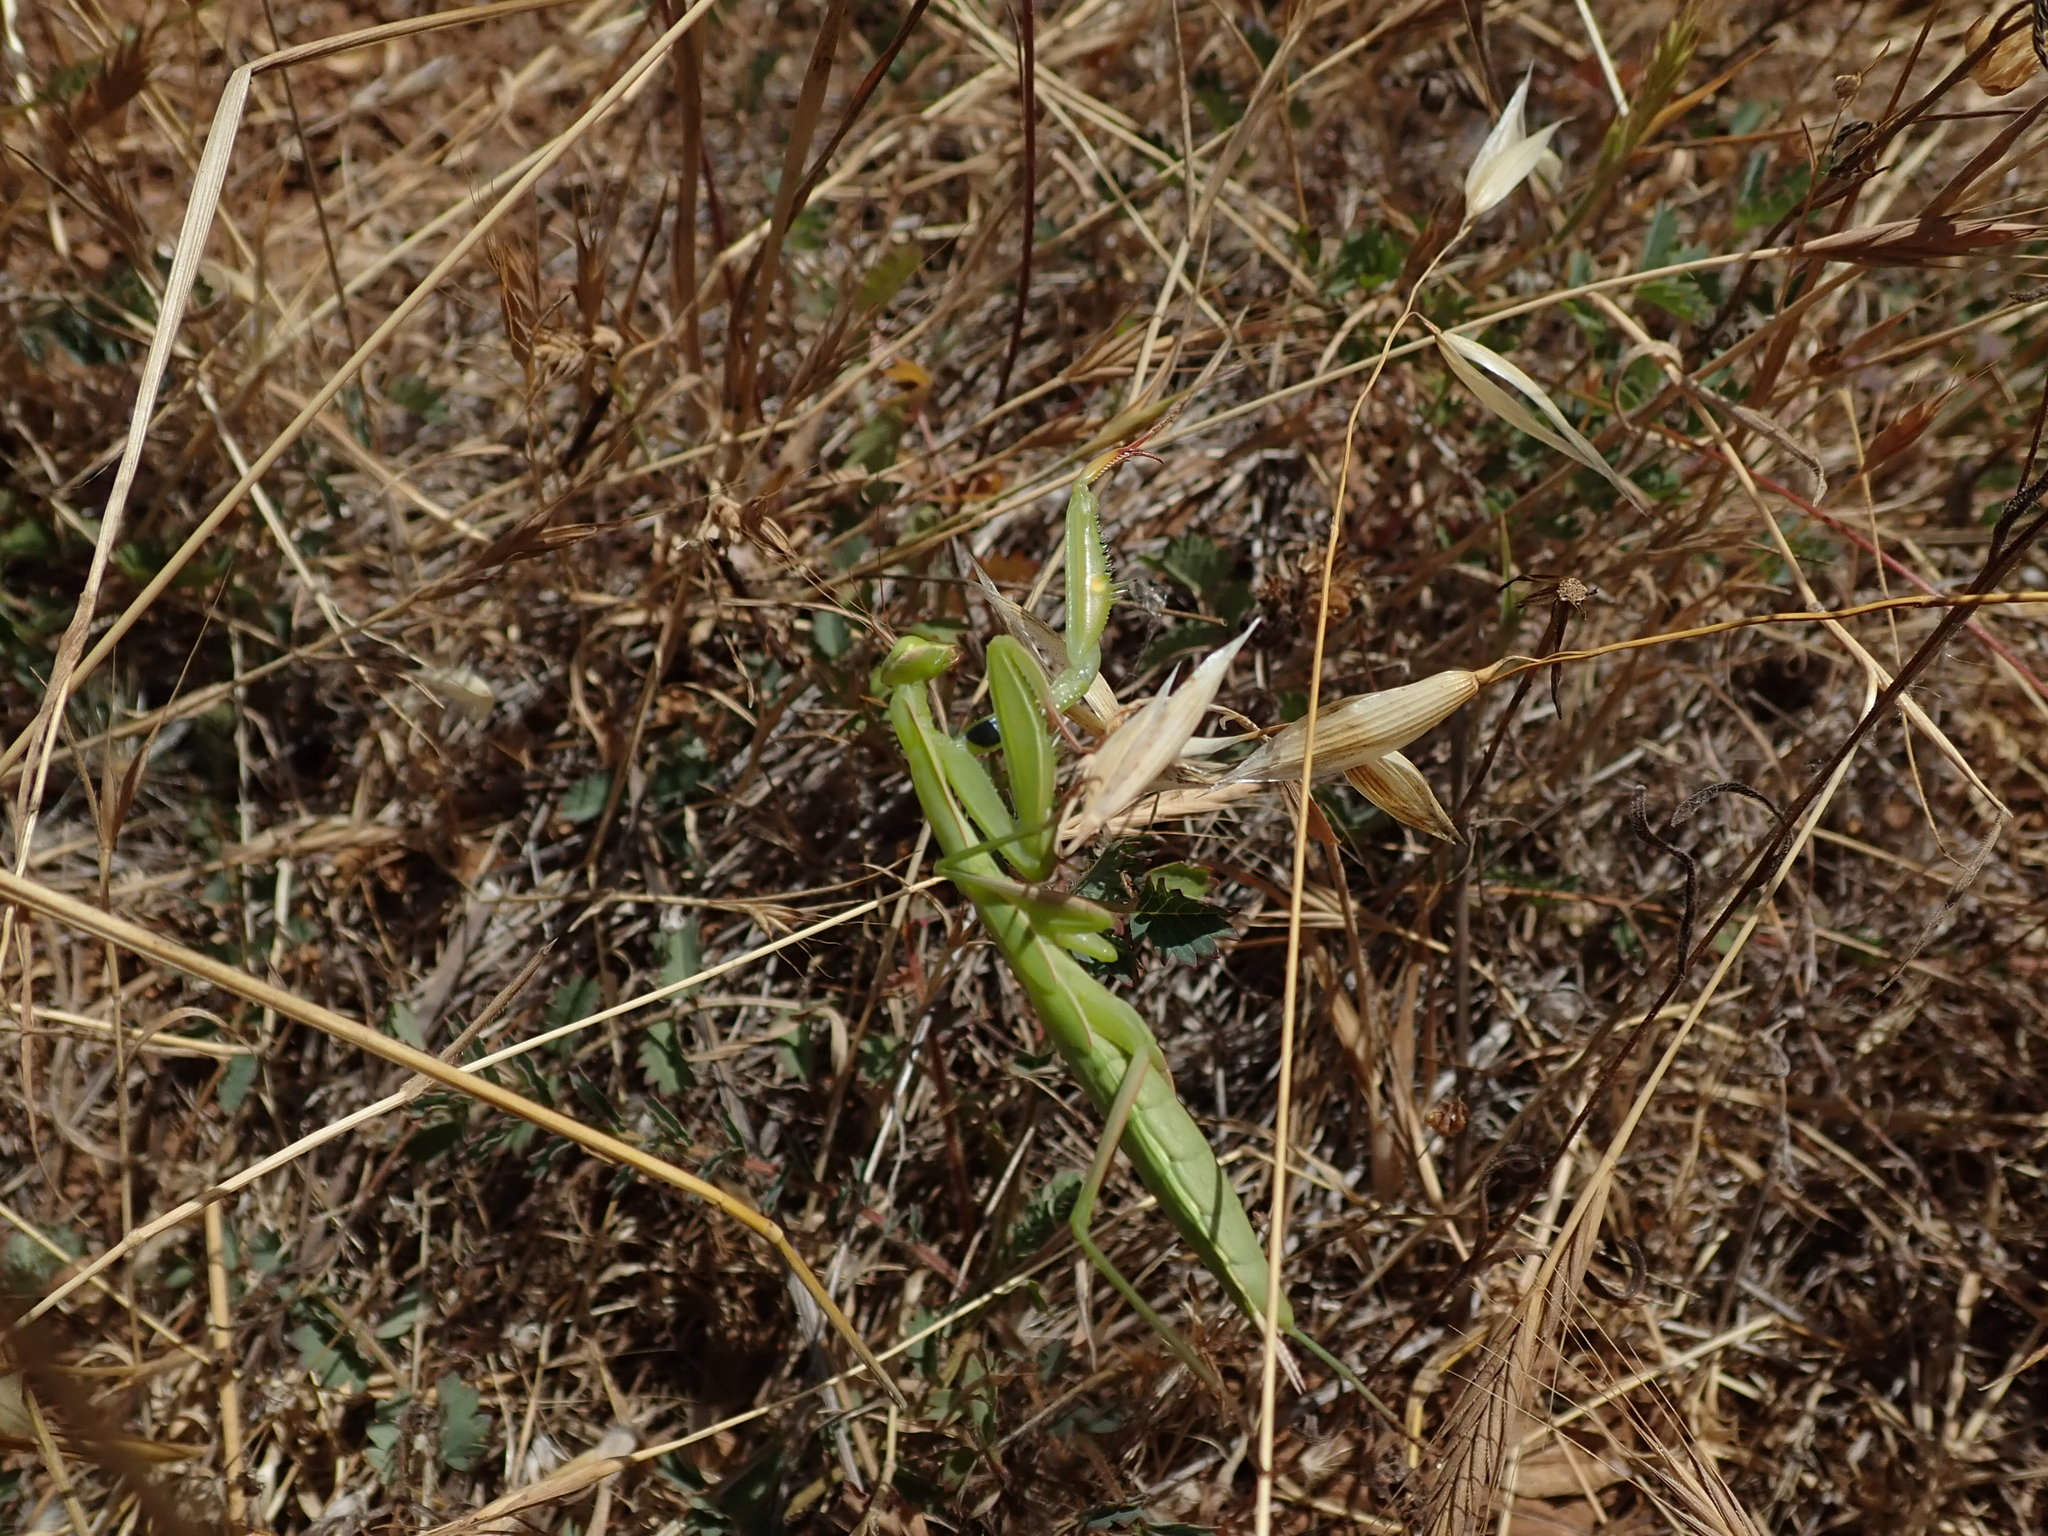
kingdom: Animalia
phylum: Arthropoda
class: Insecta
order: Mantodea
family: Mantidae
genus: Mantis
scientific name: Mantis religiosa
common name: Praying mantis
